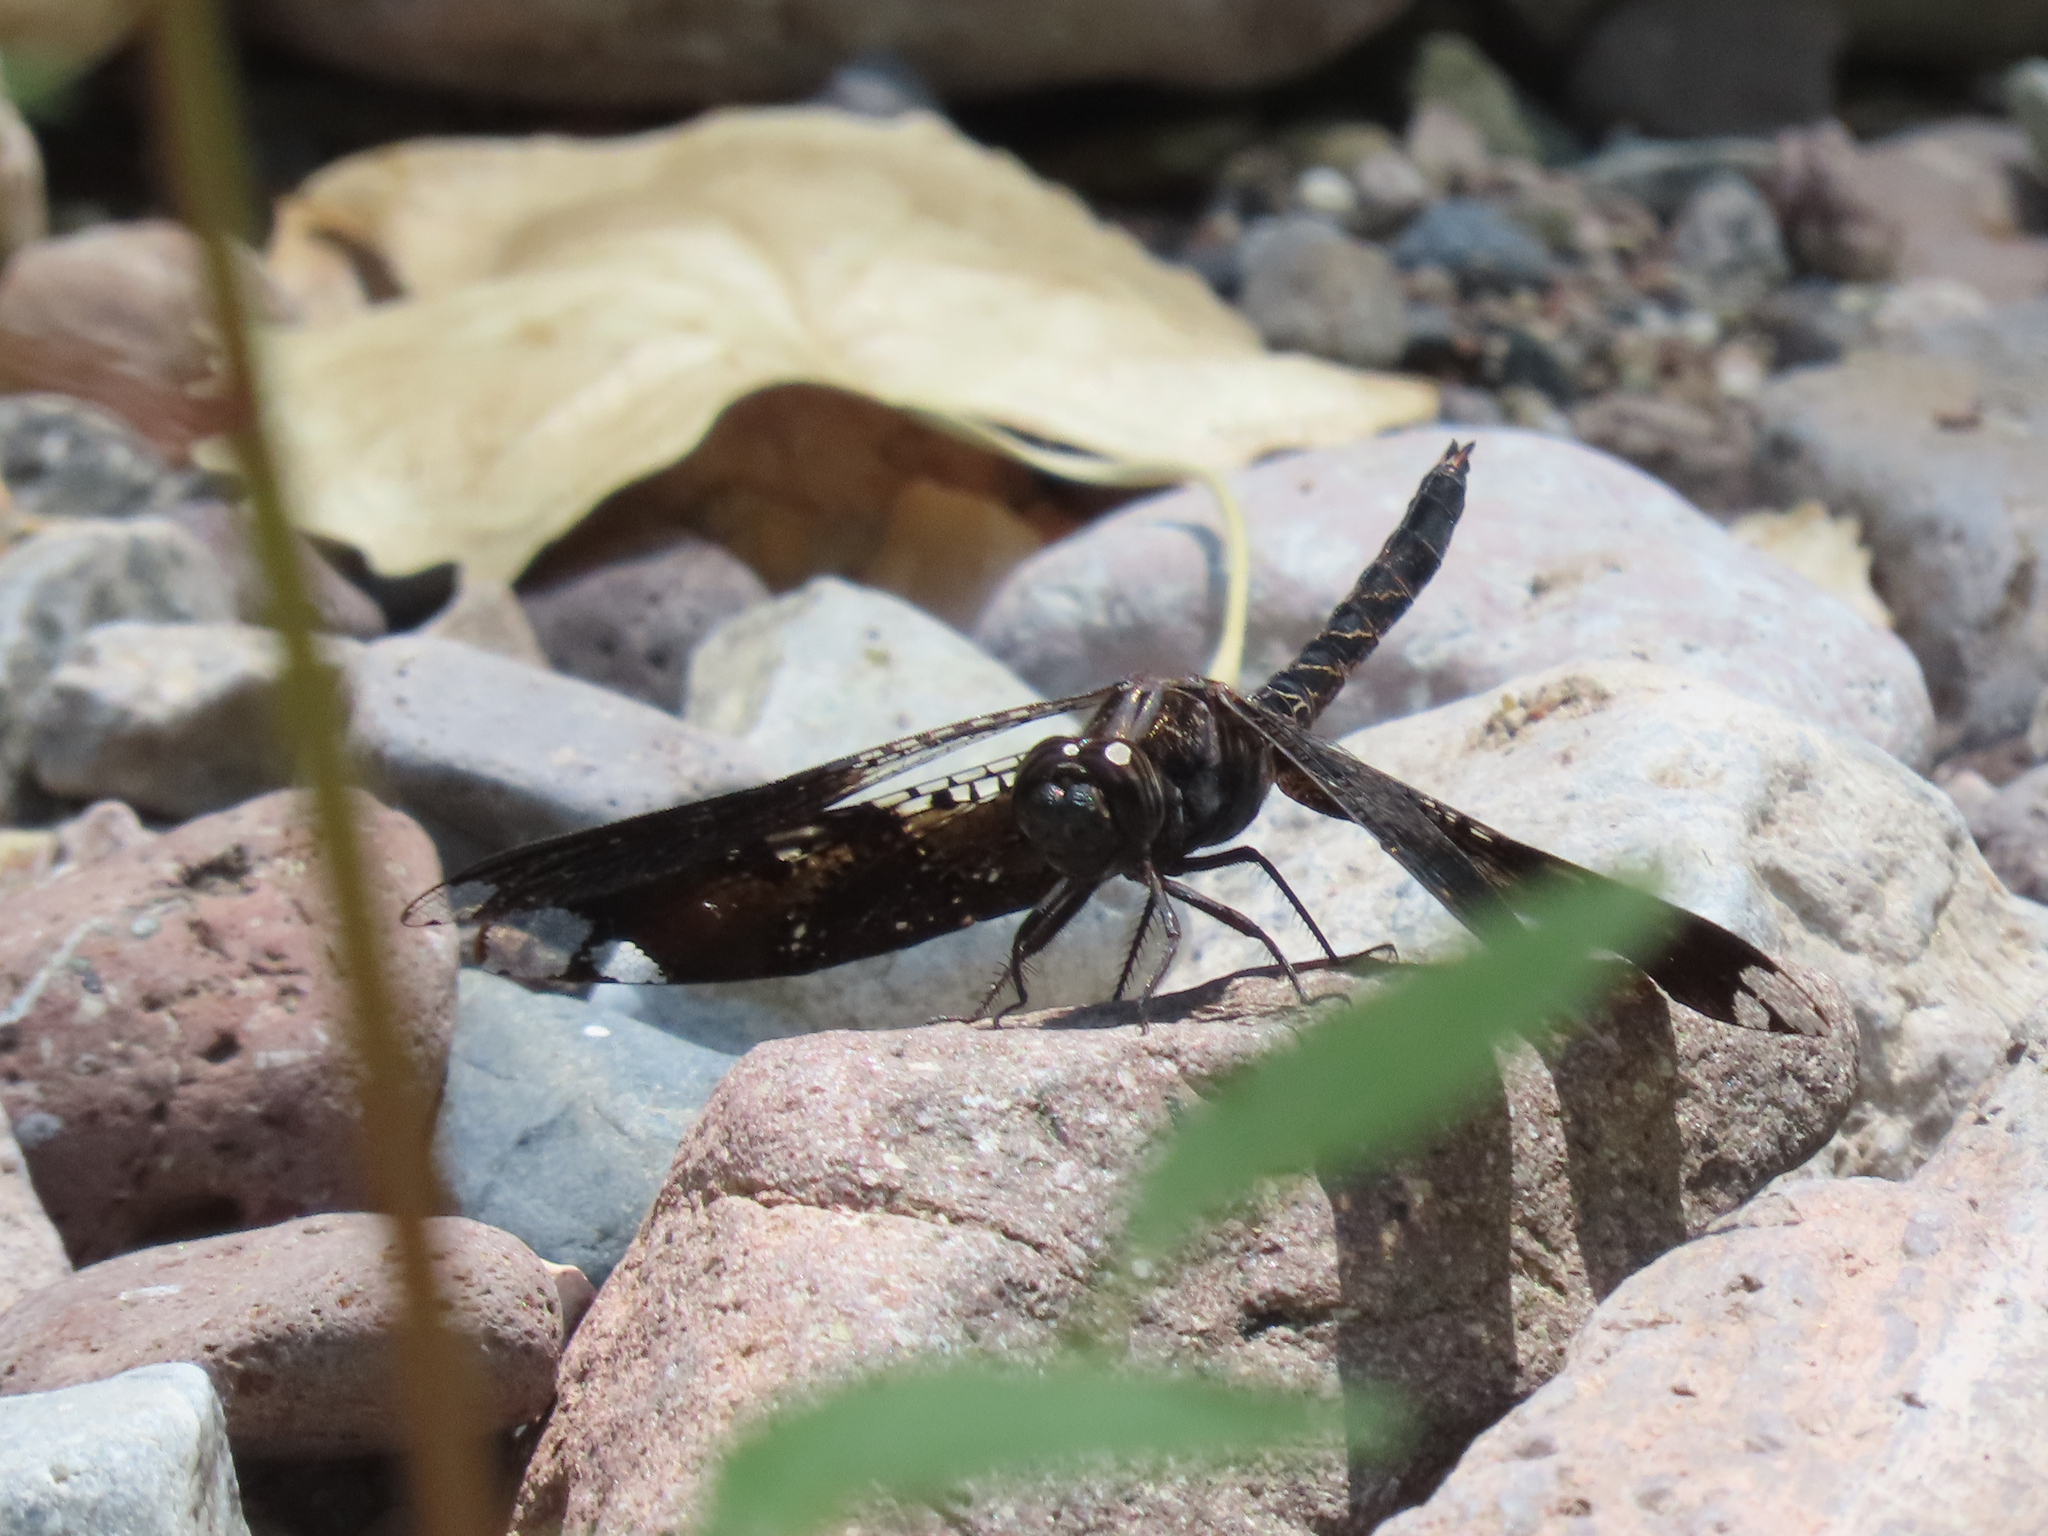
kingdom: Animalia
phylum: Arthropoda
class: Insecta
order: Odonata
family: Libellulidae
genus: Pseudoleon
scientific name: Pseudoleon superbus
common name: Filigree skimmer
